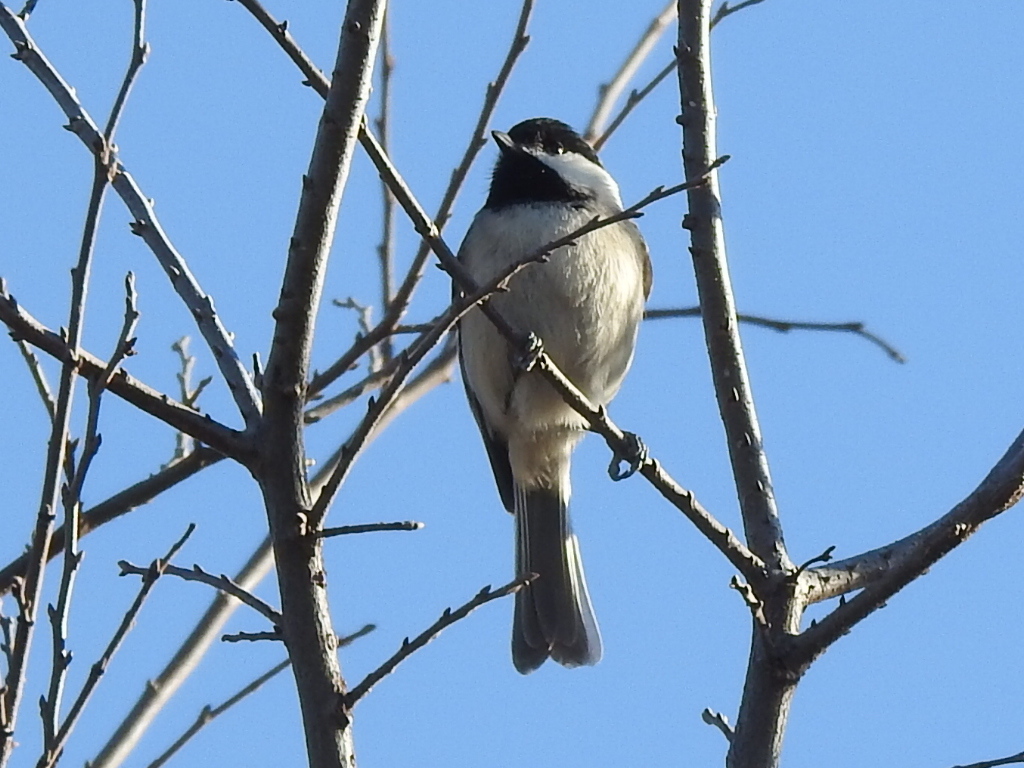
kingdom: Animalia
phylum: Chordata
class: Aves
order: Passeriformes
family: Paridae
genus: Poecile
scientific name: Poecile carolinensis
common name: Carolina chickadee
